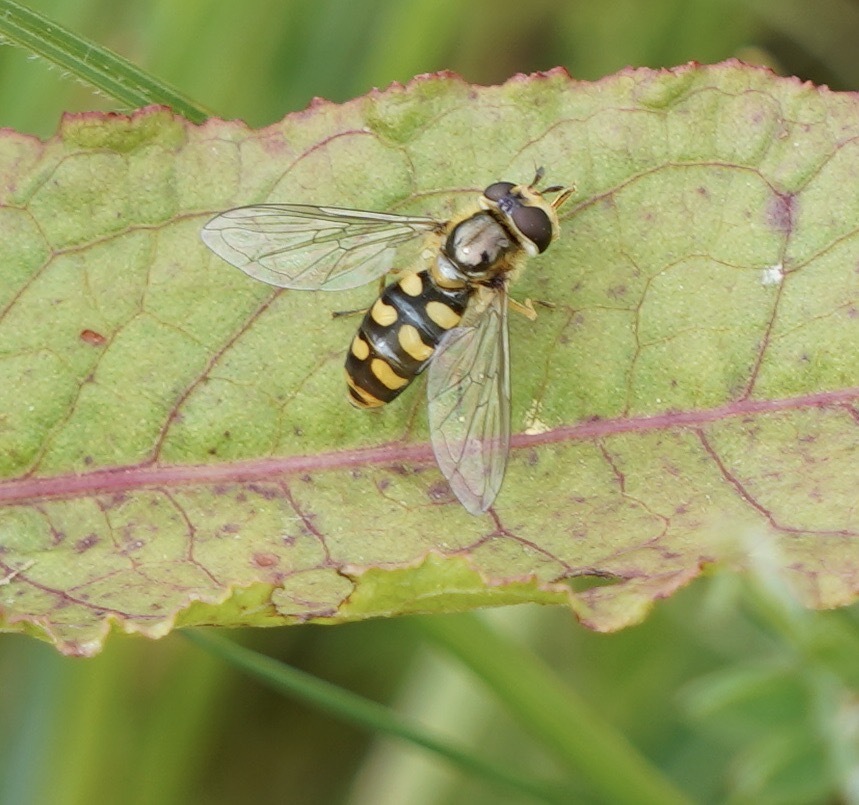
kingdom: Animalia
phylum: Arthropoda
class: Insecta
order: Diptera
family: Syrphidae
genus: Eupeodes
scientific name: Eupeodes luniger
